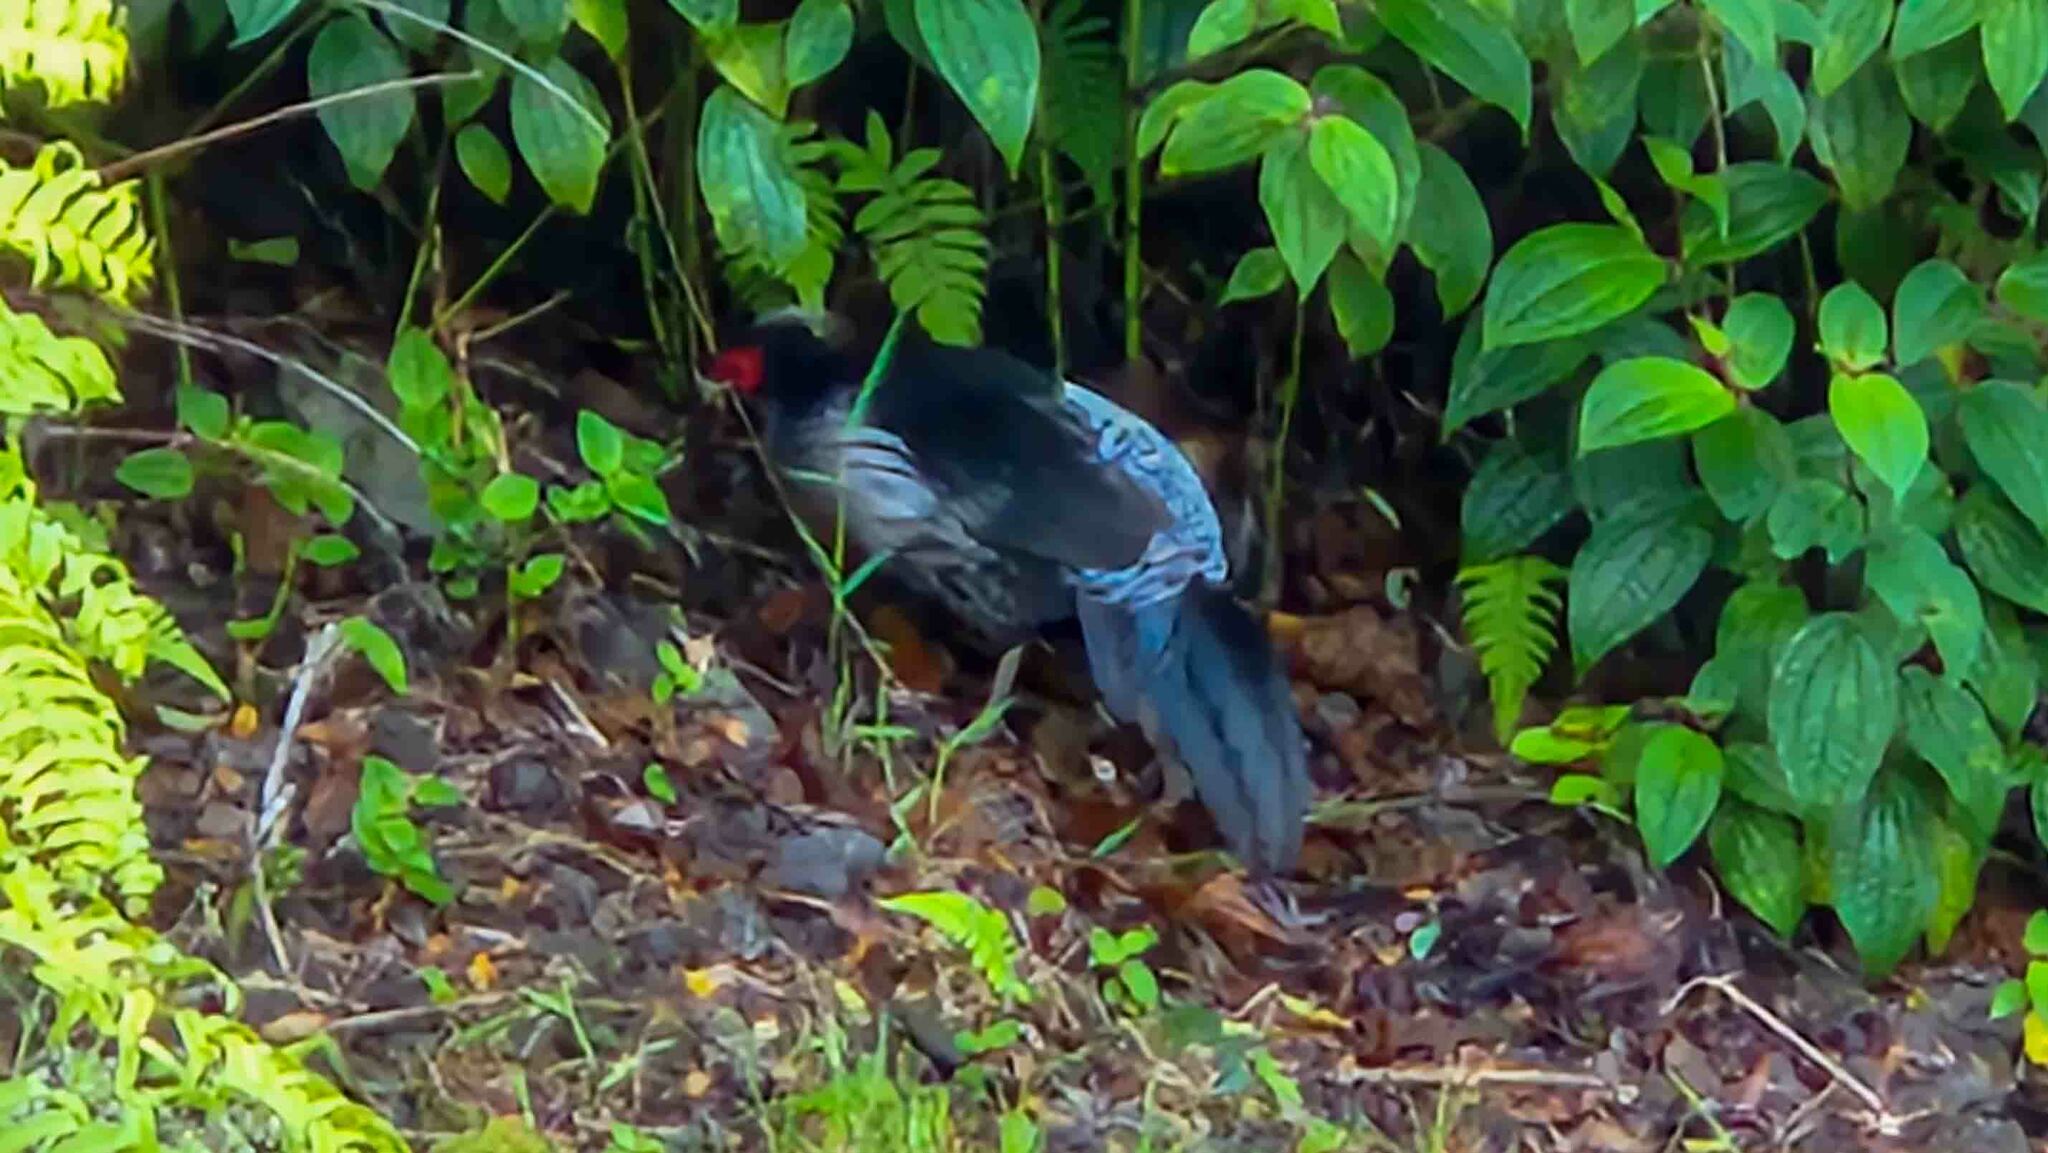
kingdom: Animalia
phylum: Chordata
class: Aves
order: Galliformes
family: Phasianidae
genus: Lophura
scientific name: Lophura leucomelanos
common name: Kalij pheasant
